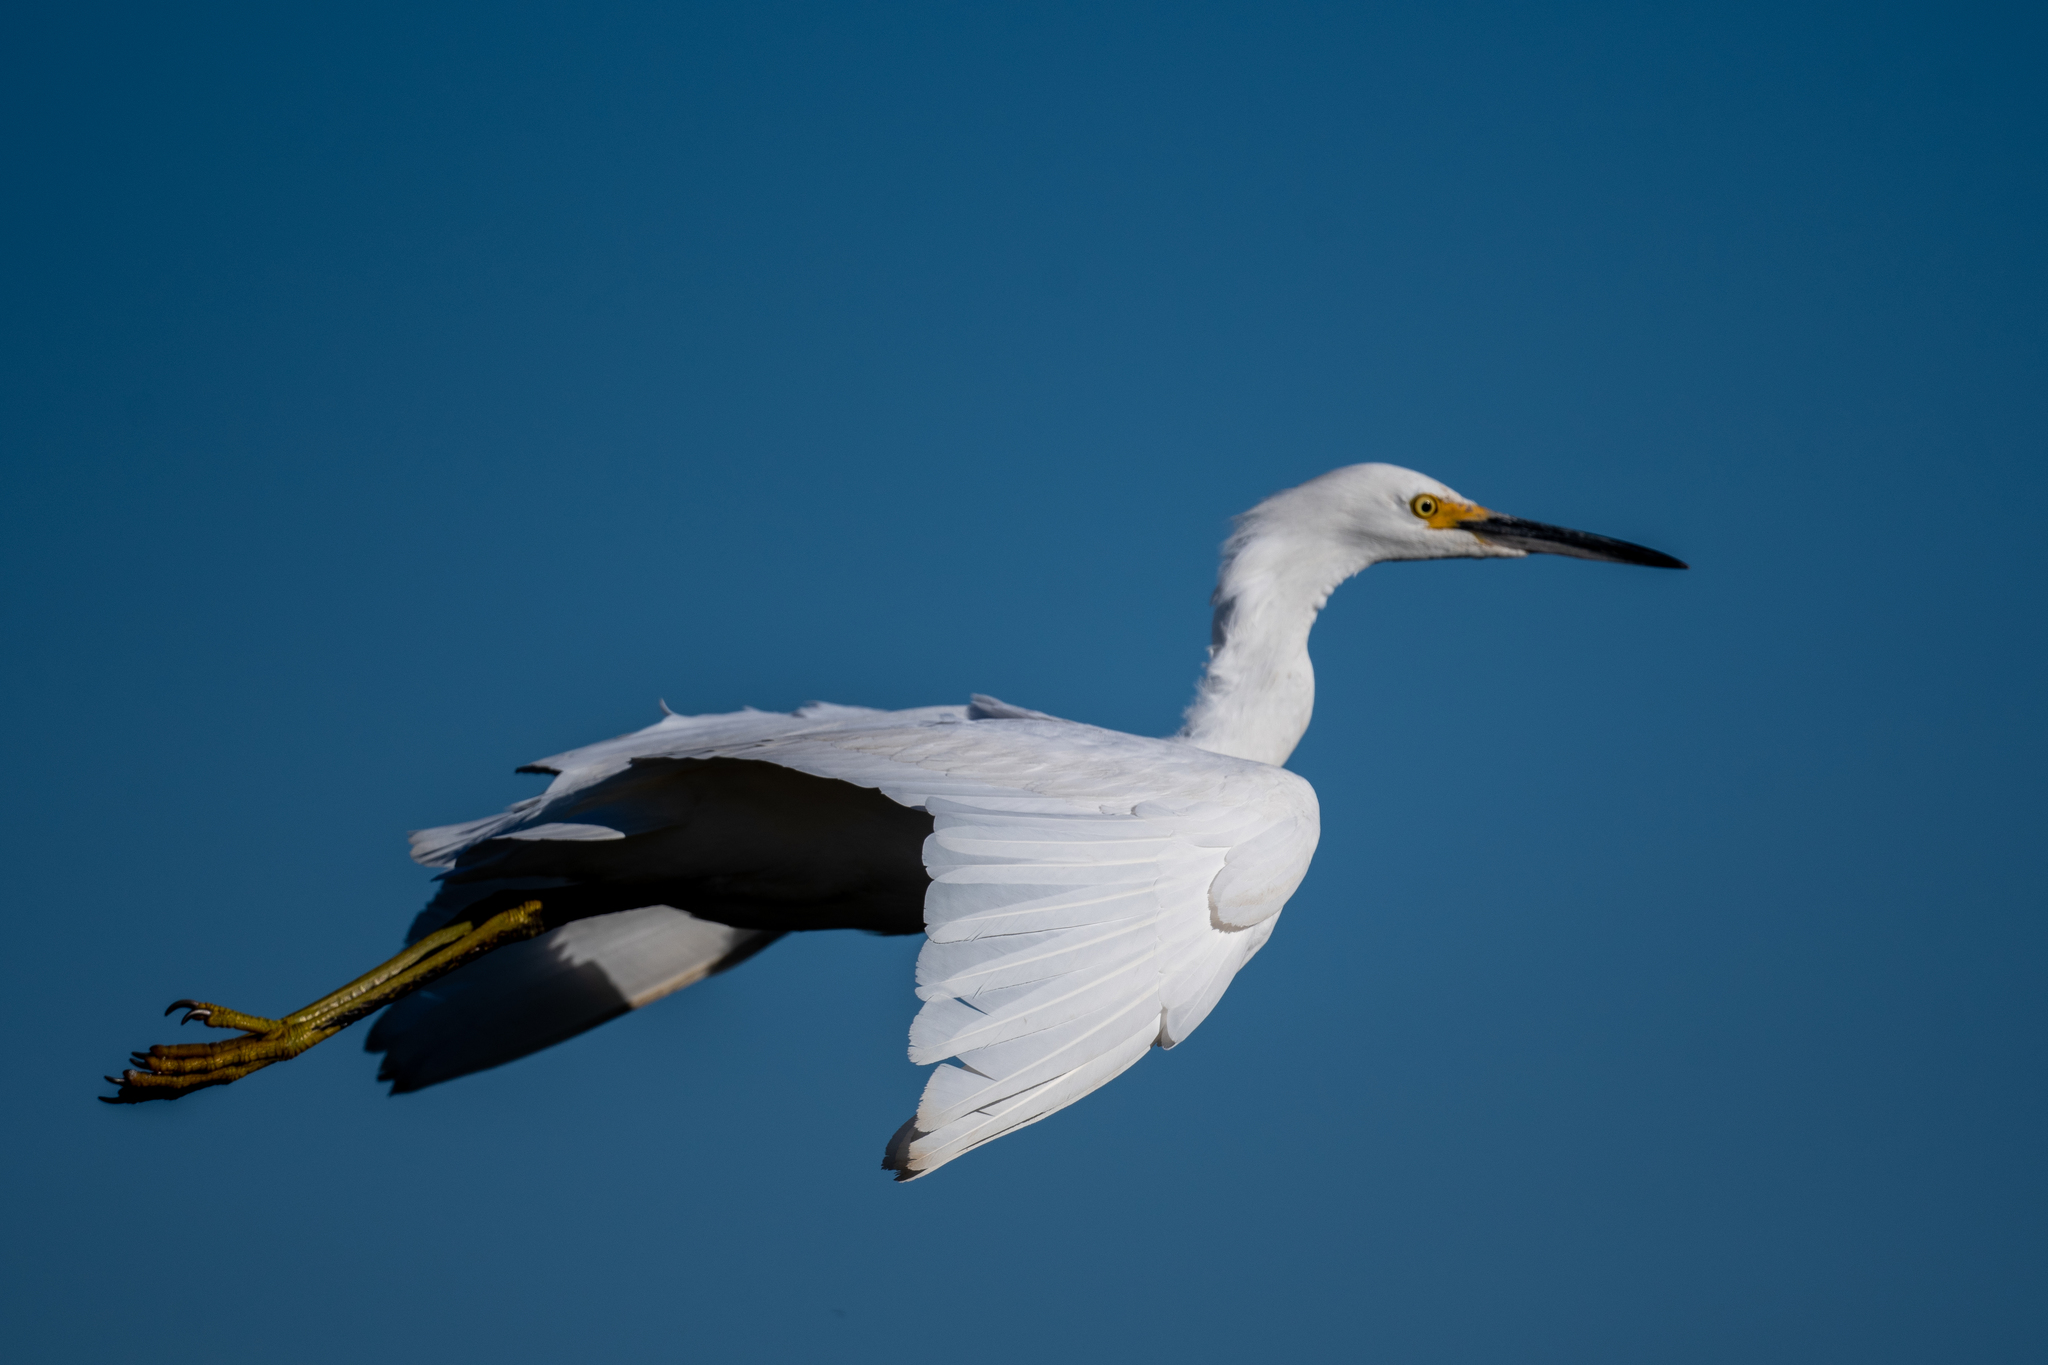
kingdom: Animalia
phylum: Chordata
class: Aves
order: Pelecaniformes
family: Ardeidae
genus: Egretta
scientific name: Egretta thula
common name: Snowy egret
